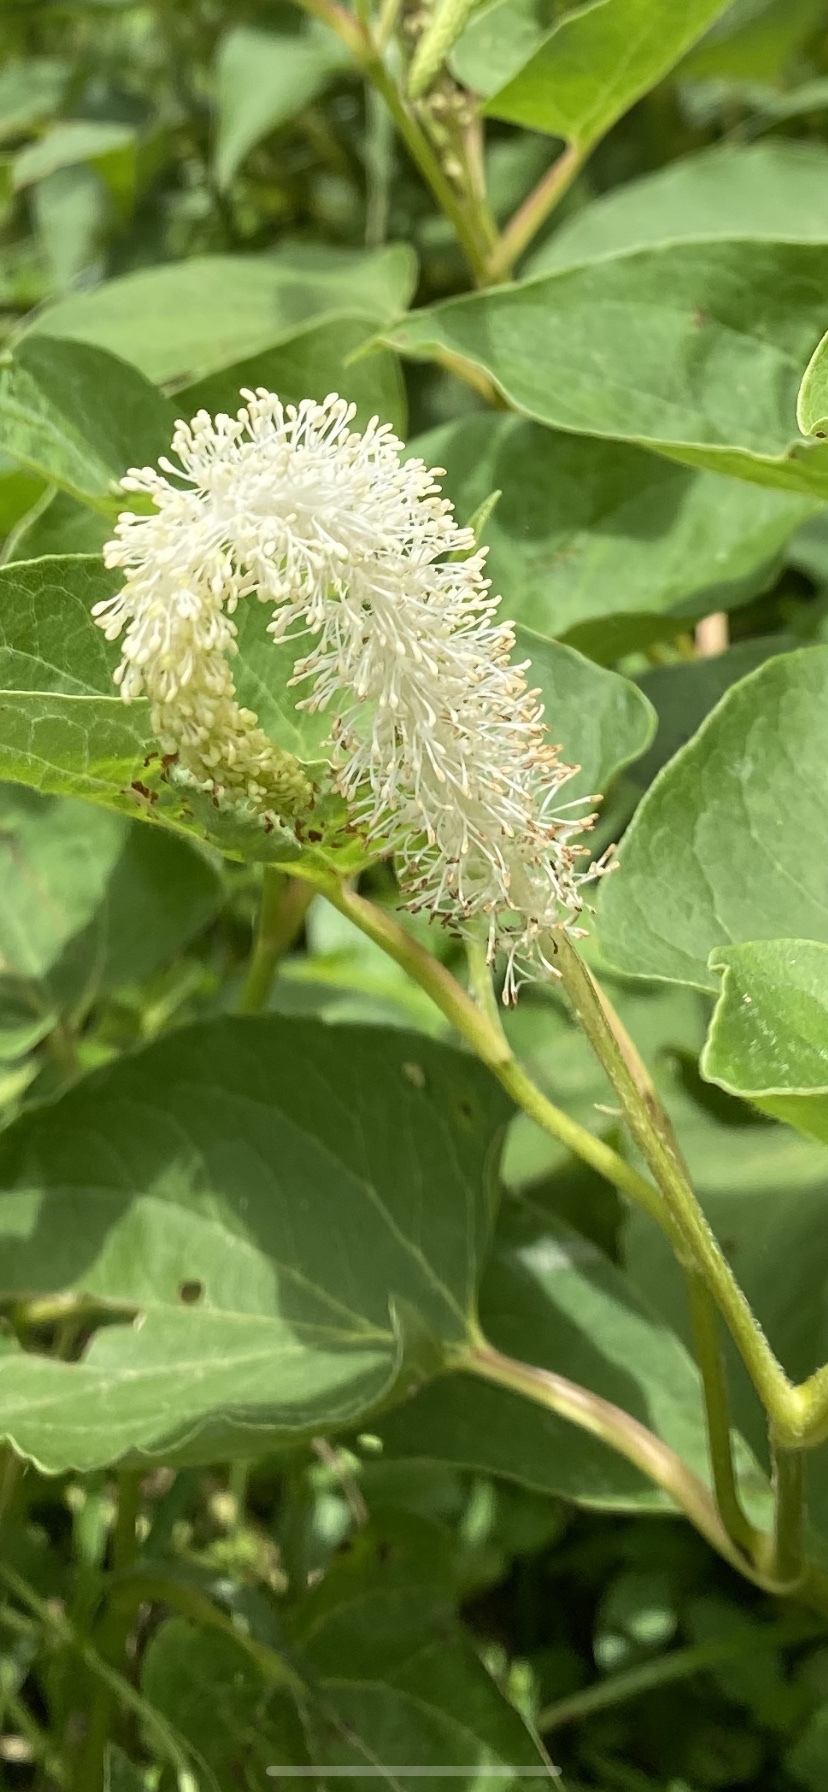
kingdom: Plantae
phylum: Tracheophyta
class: Magnoliopsida
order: Piperales
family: Saururaceae
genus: Saururus
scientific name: Saururus cernuus
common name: Lizard's-tail
